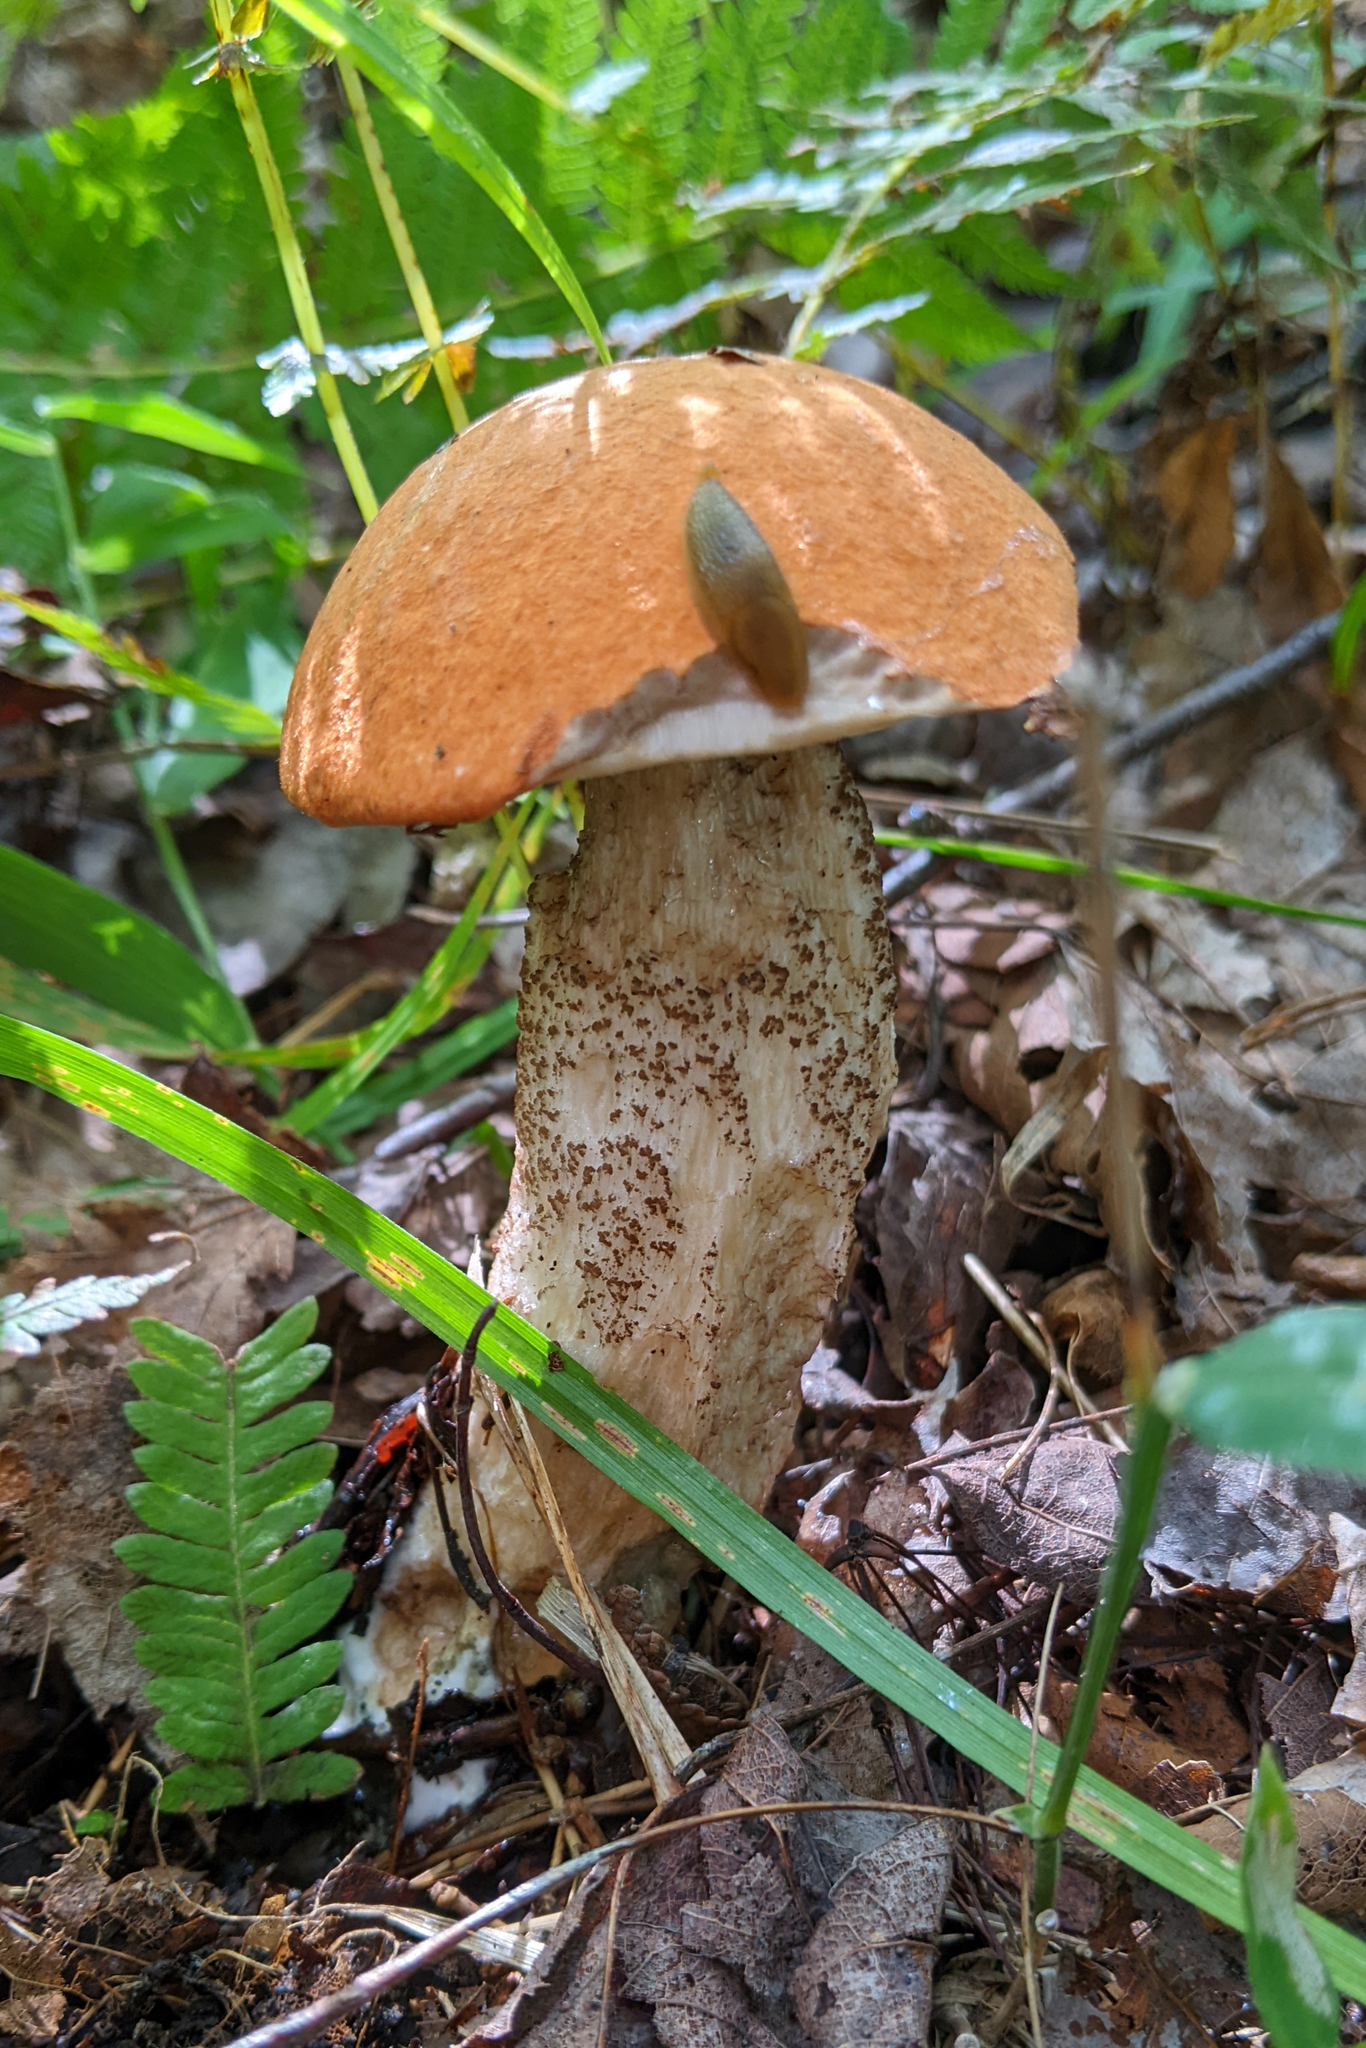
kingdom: Fungi
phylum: Basidiomycota
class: Agaricomycetes
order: Boletales
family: Boletaceae
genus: Leccinum
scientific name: Leccinum versipelle
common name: Orange birch bolete
